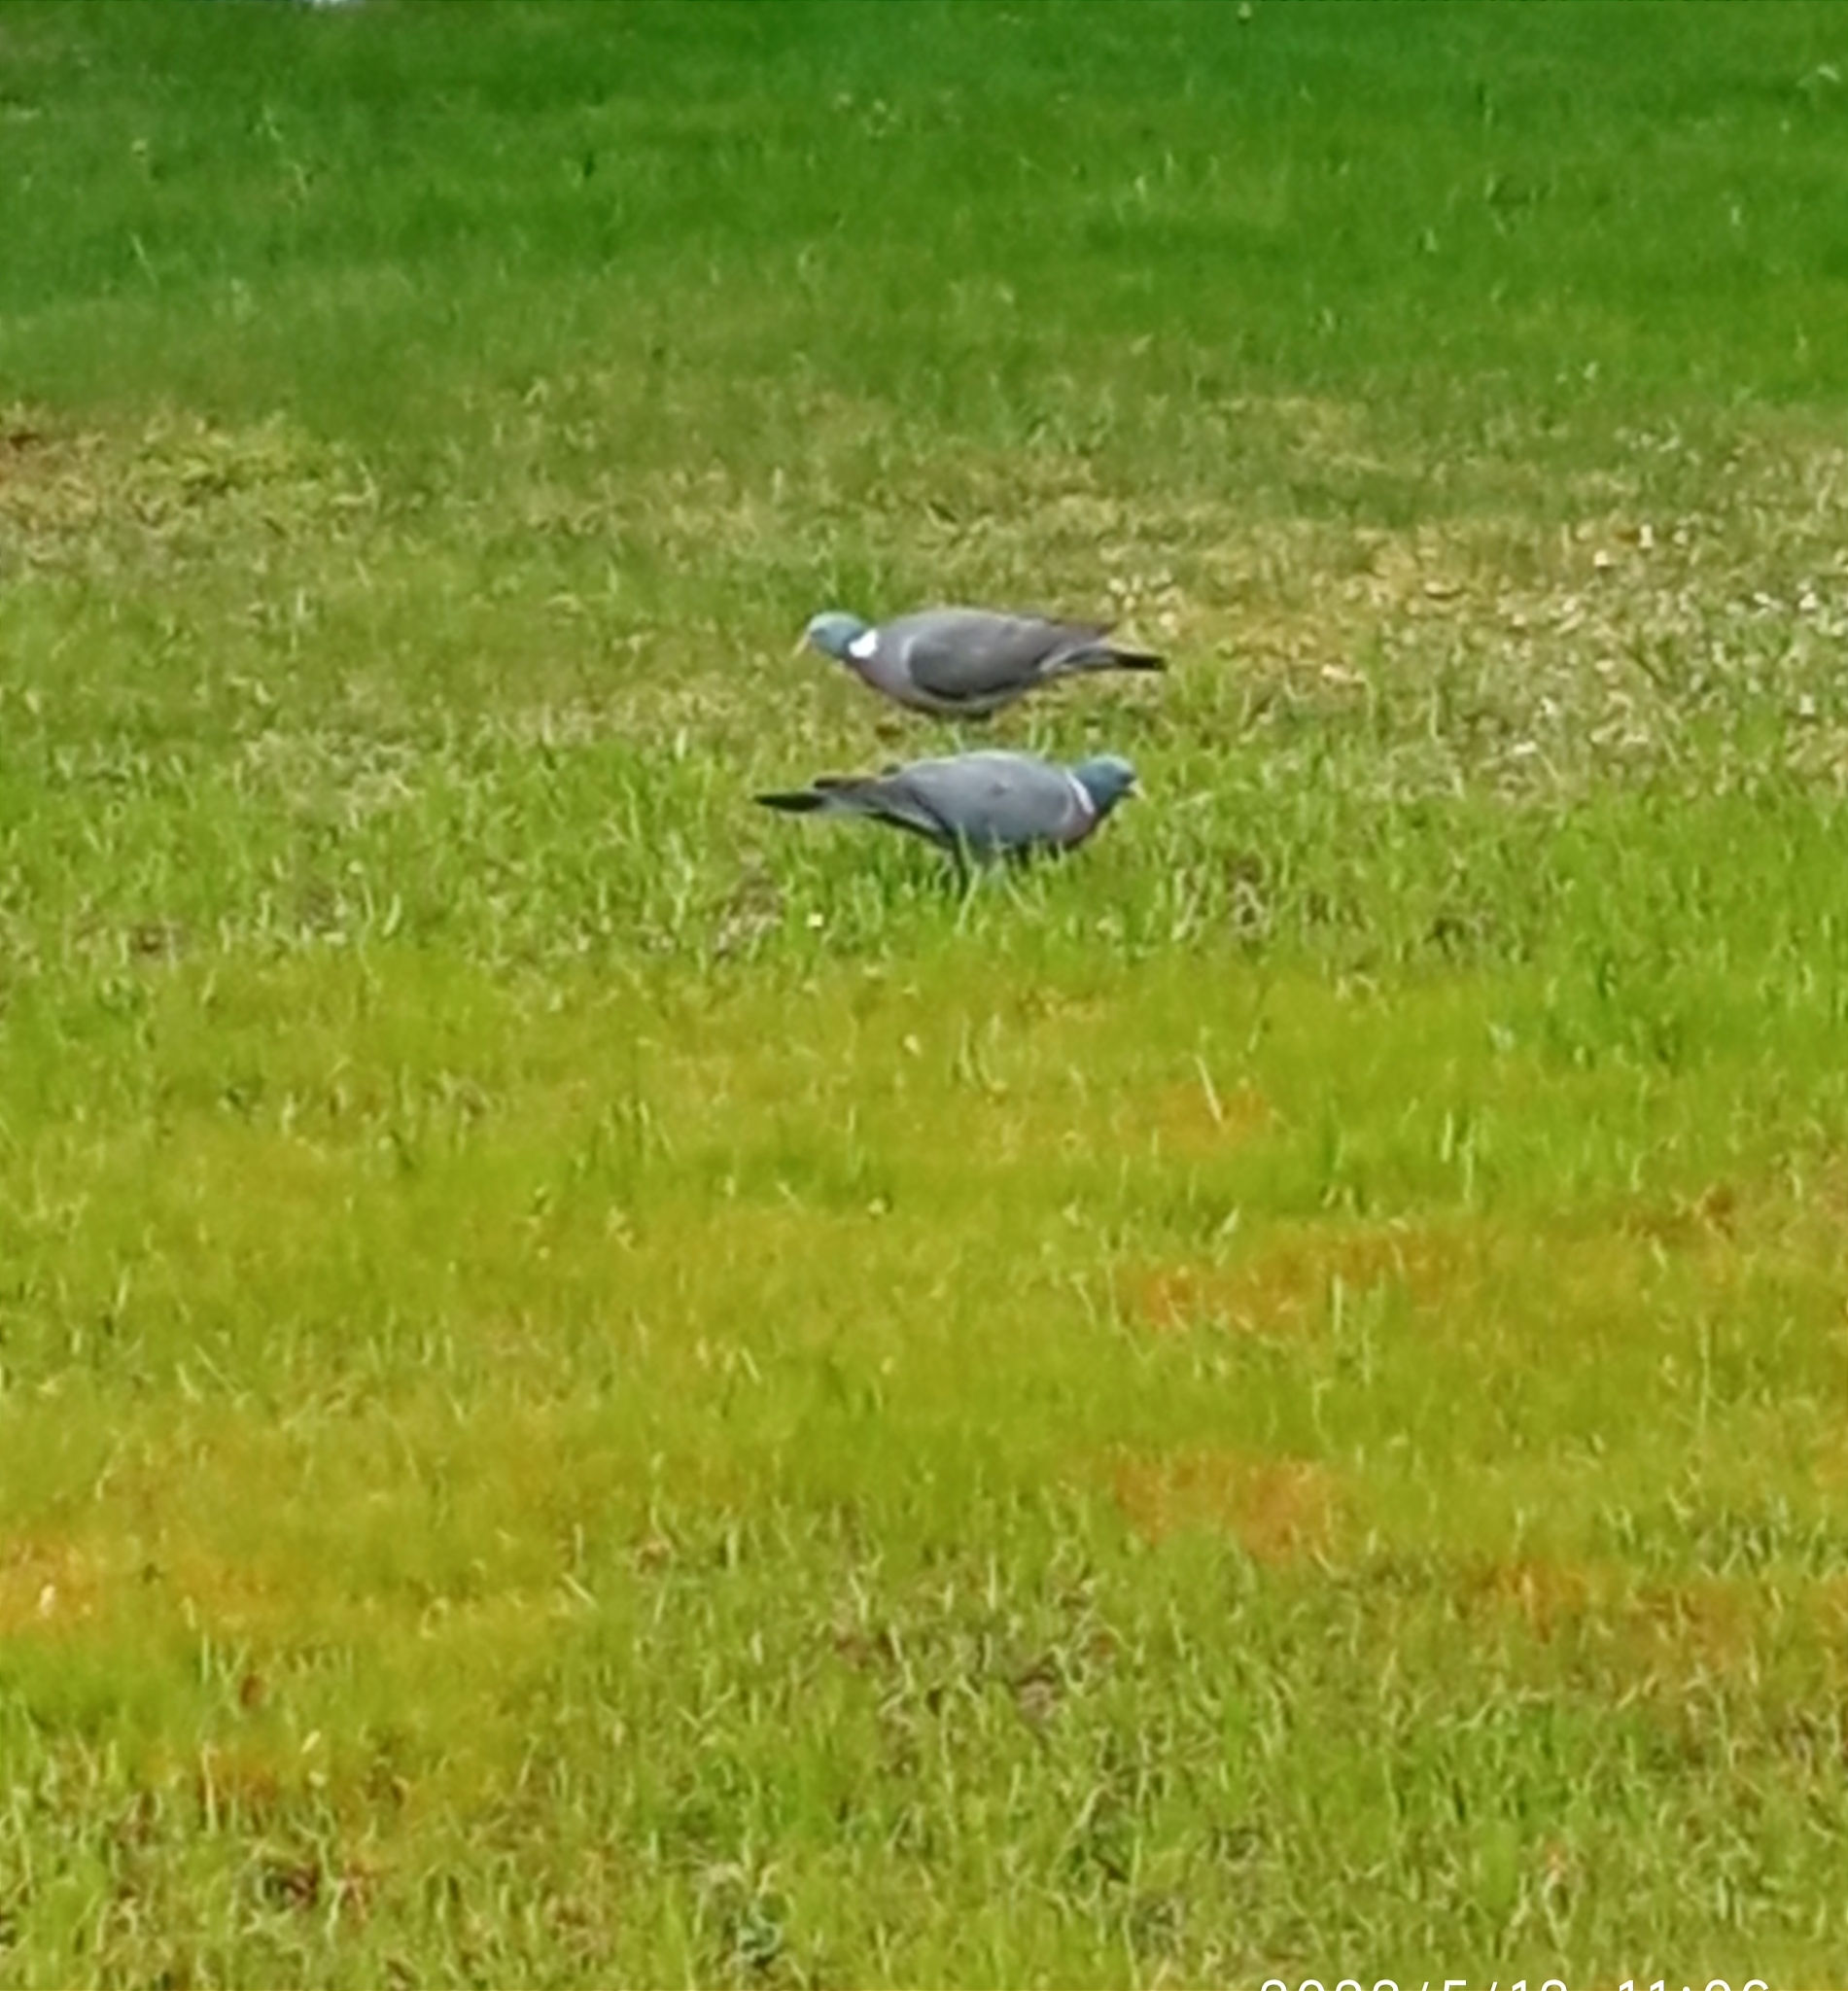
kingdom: Animalia
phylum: Chordata
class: Aves
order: Columbiformes
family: Columbidae
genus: Columba
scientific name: Columba palumbus
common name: Common wood pigeon
